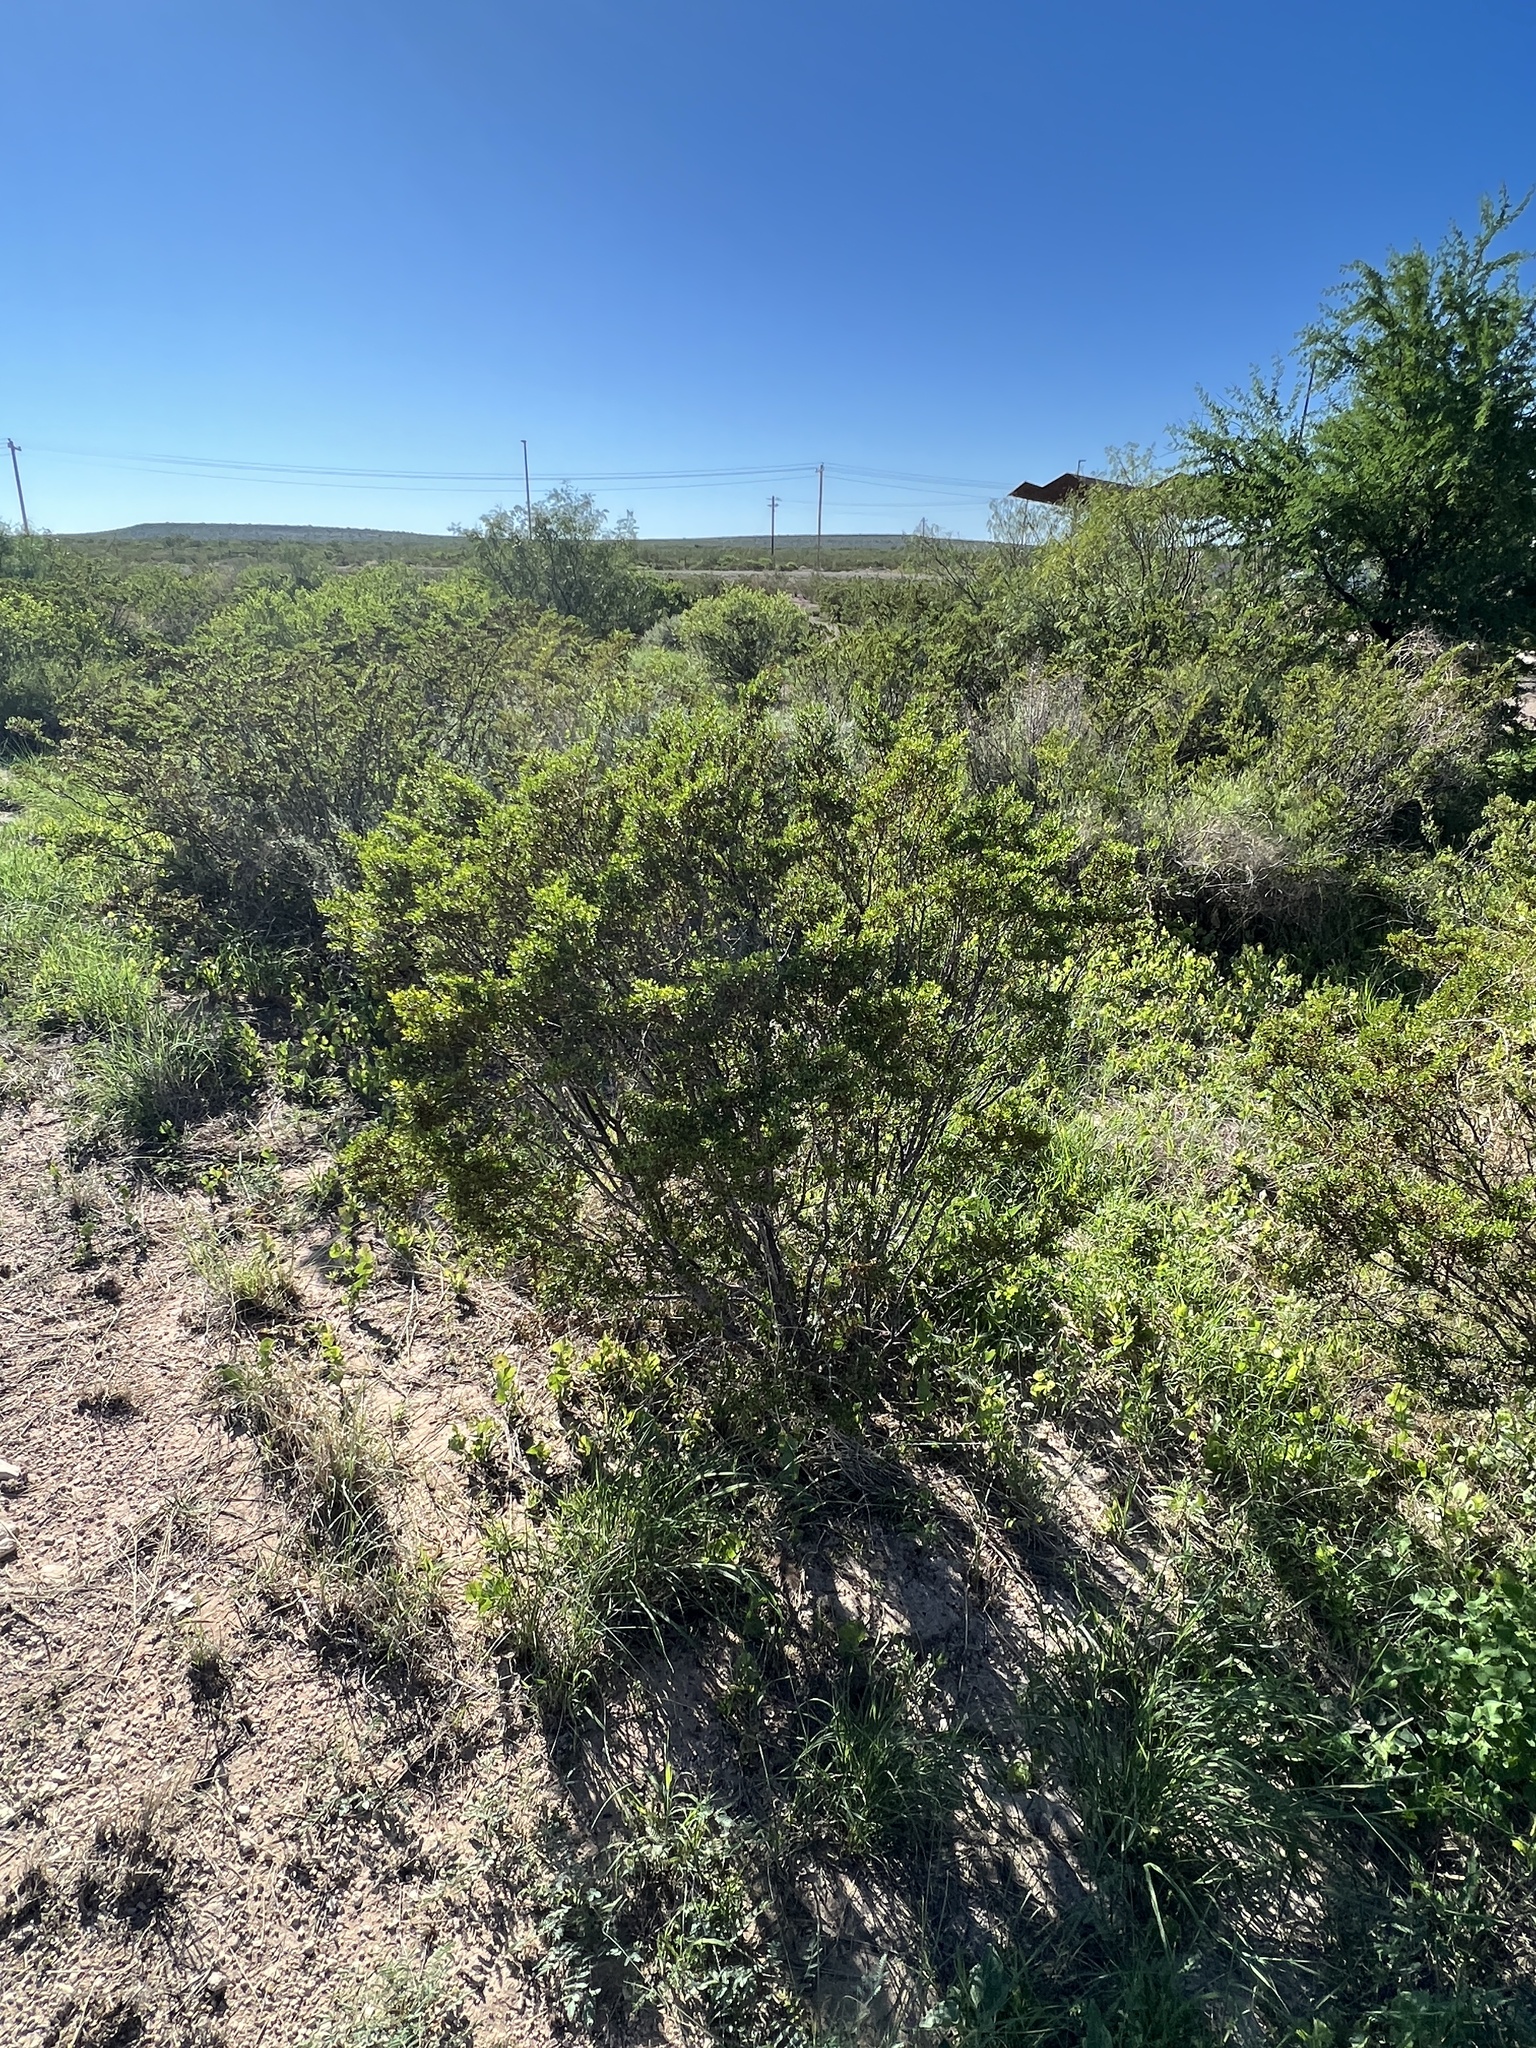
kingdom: Plantae
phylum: Tracheophyta
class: Magnoliopsida
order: Zygophyllales
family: Zygophyllaceae
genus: Larrea
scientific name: Larrea tridentata
